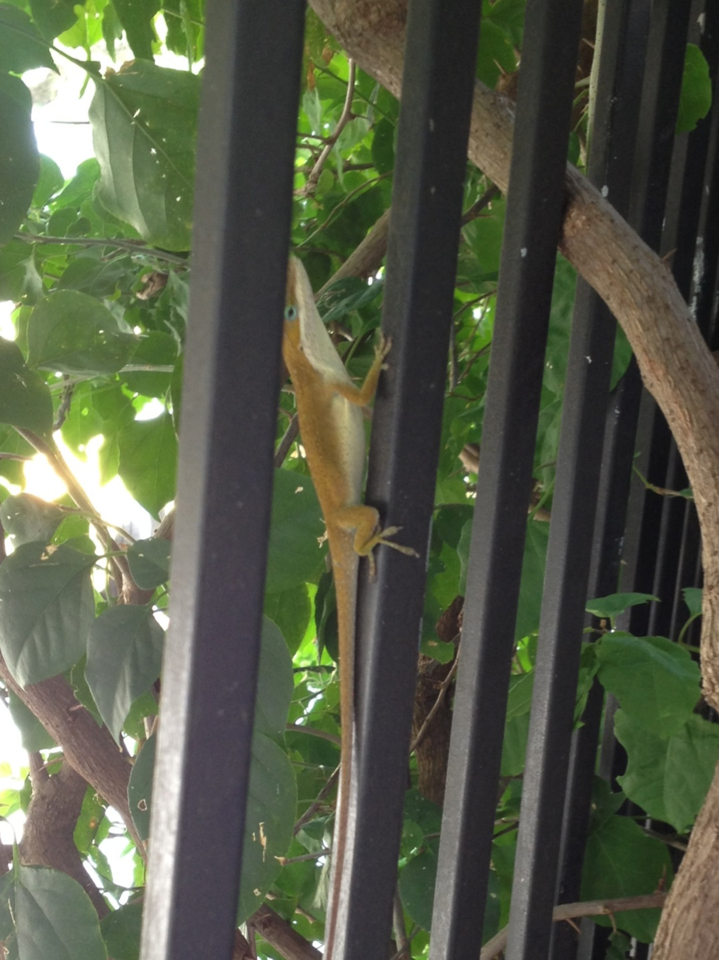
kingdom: Animalia
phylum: Chordata
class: Squamata
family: Dactyloidae
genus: Anolis
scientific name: Anolis carolinensis
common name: Green anole
